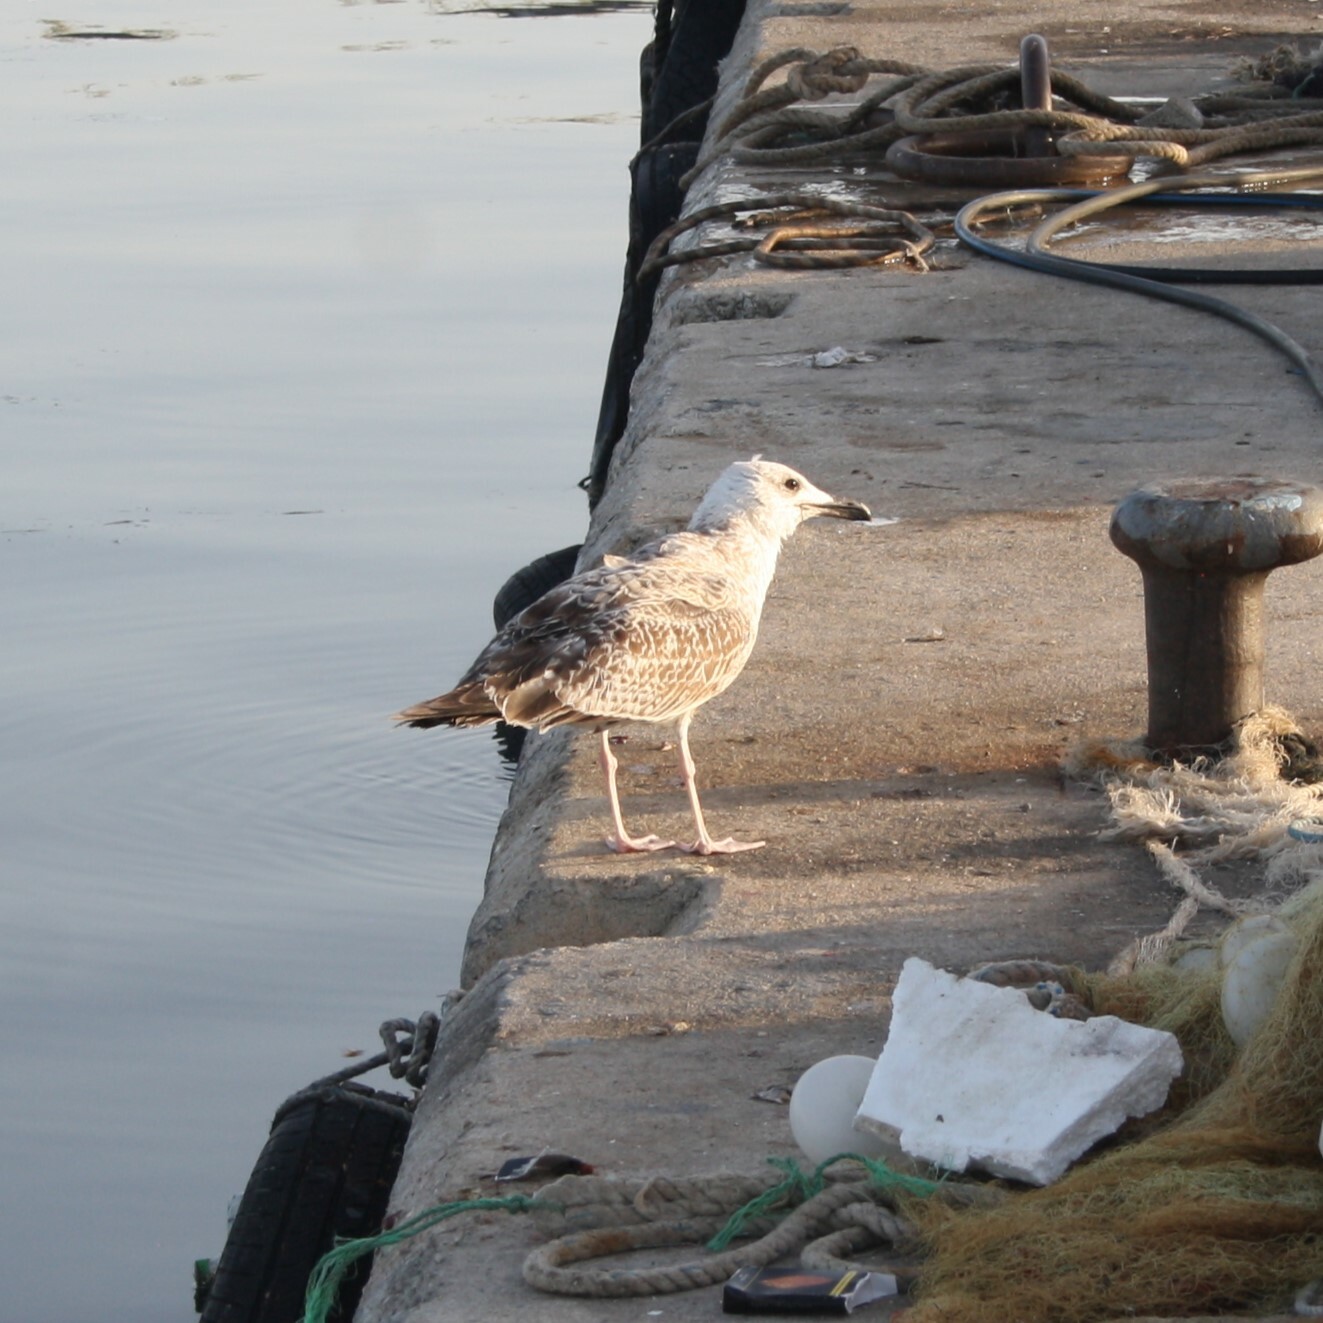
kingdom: Animalia
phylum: Chordata
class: Aves
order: Charadriiformes
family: Laridae
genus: Larus
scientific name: Larus michahellis
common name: Yellow-legged gull
